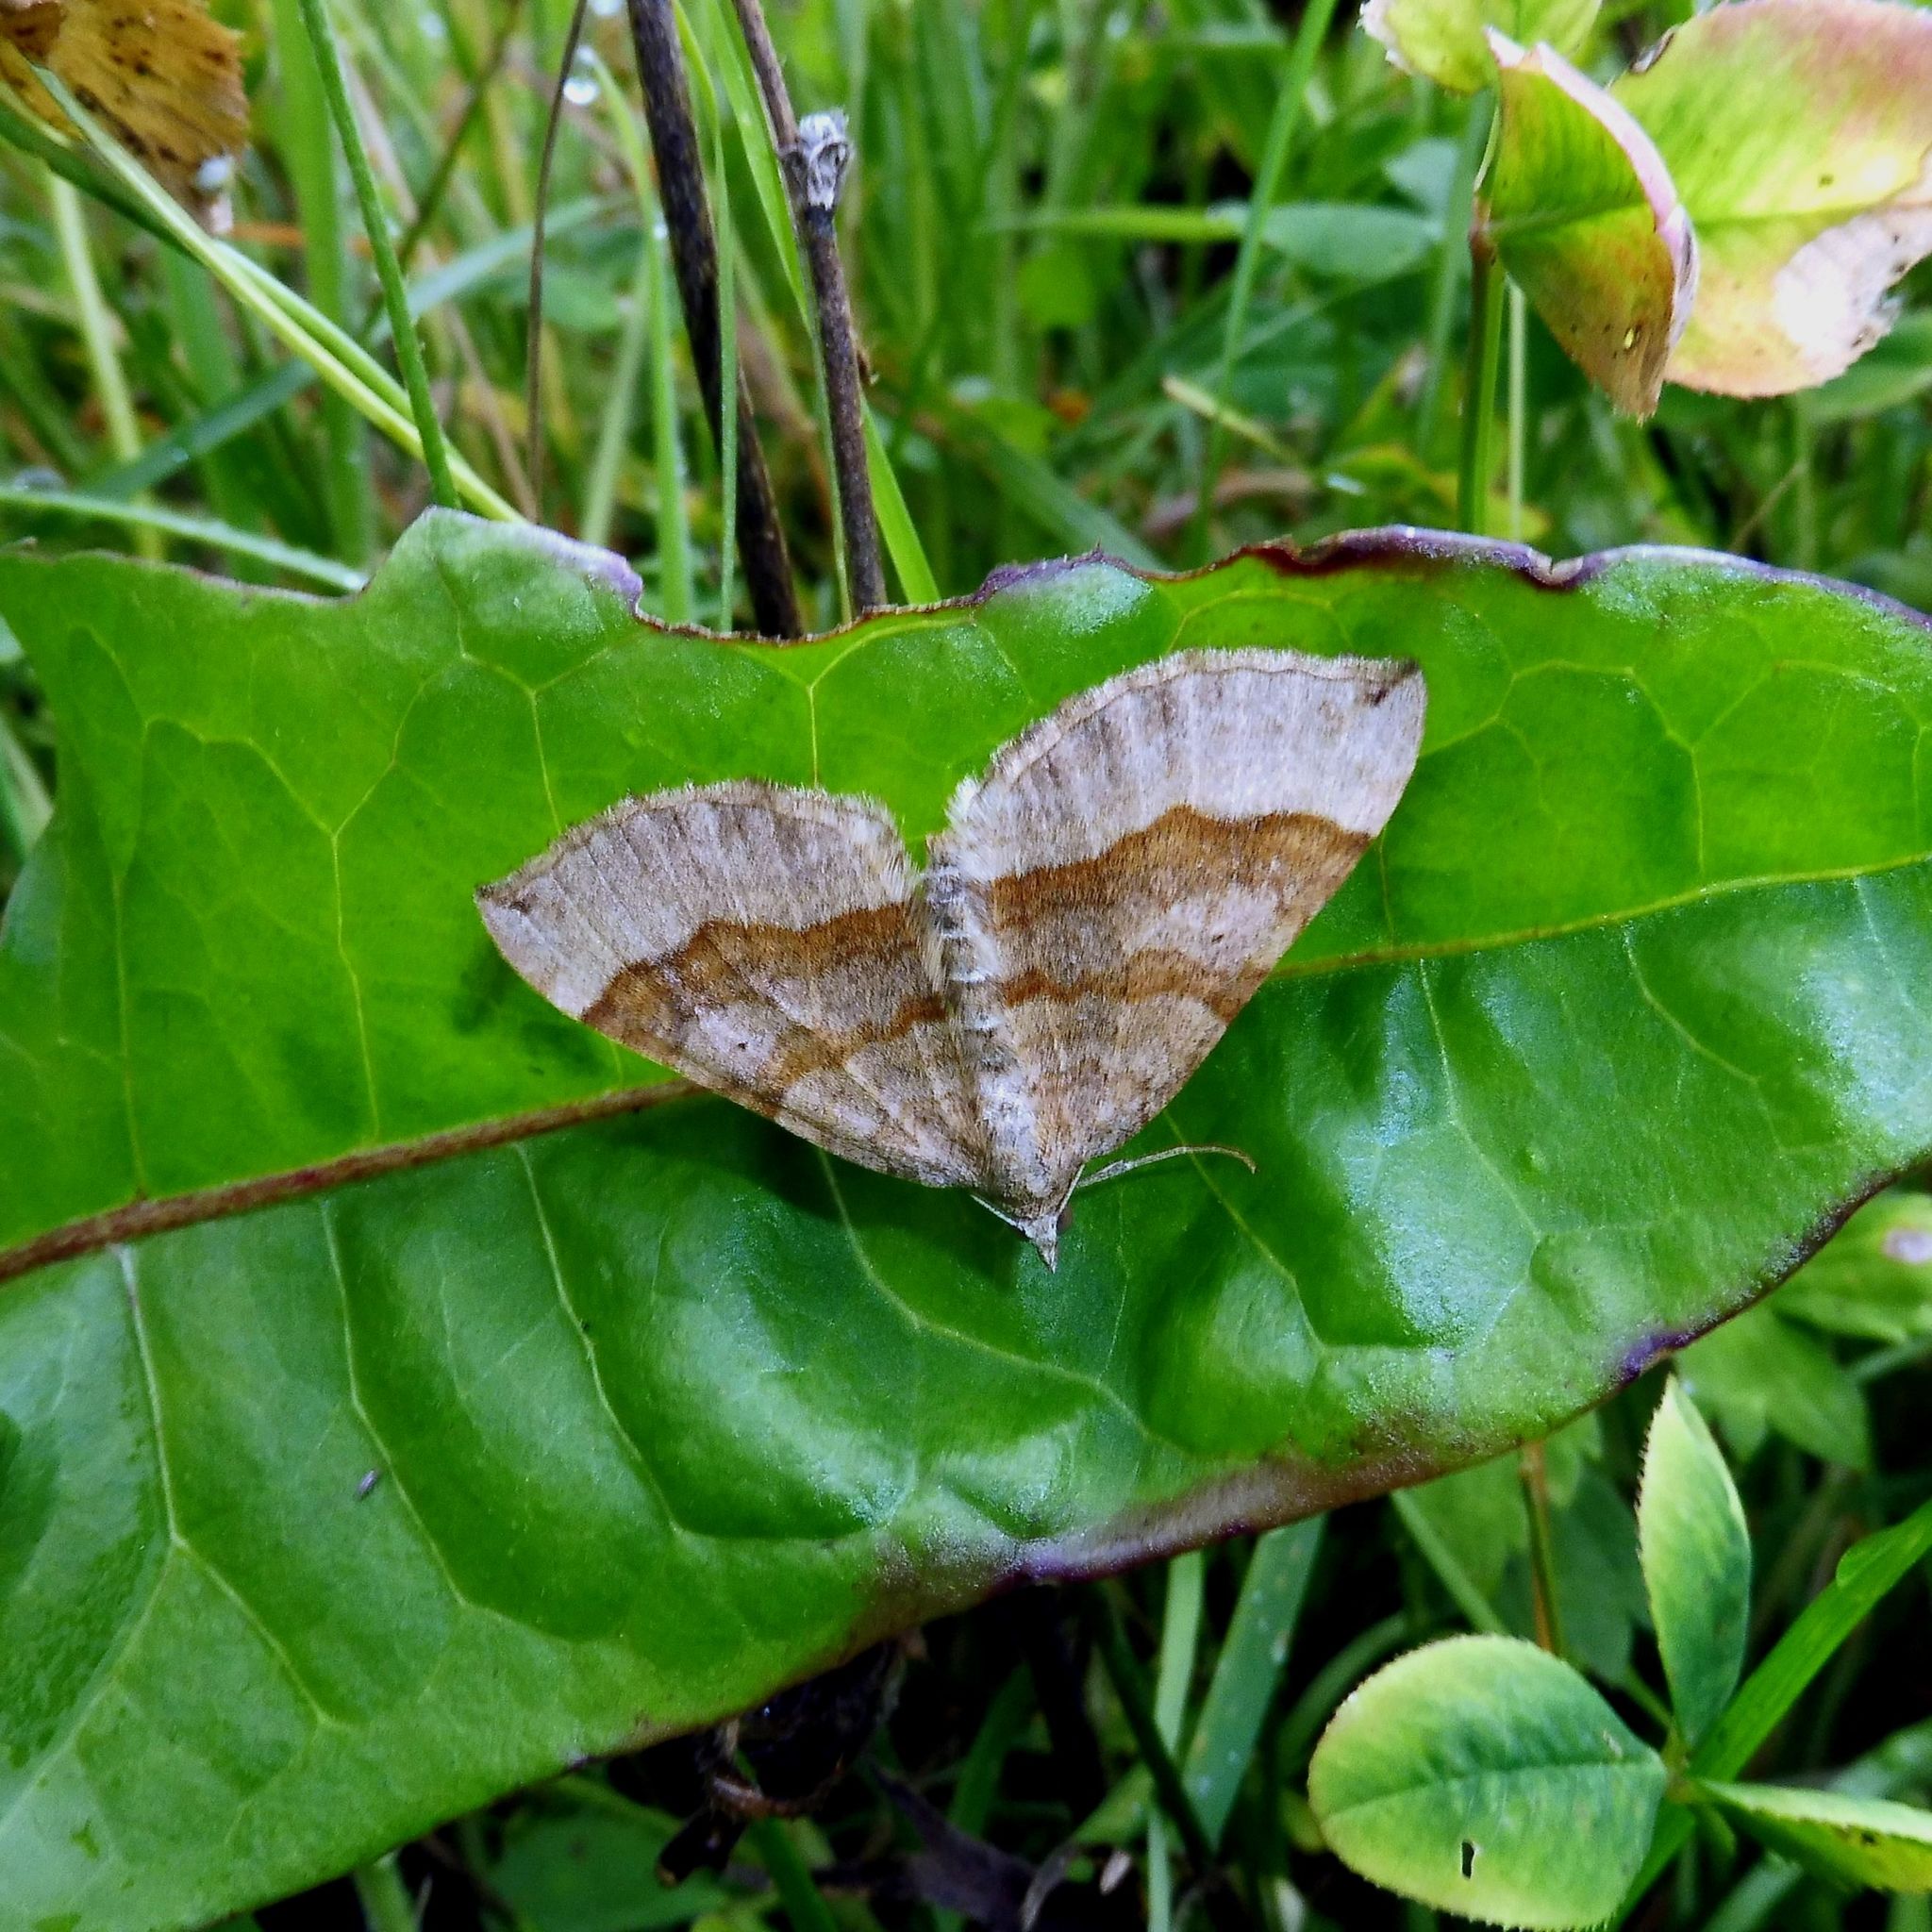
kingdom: Animalia
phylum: Arthropoda
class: Insecta
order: Lepidoptera
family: Geometridae
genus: Scotopteryx
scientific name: Scotopteryx chenopodiata
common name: Shaded broad-bar
